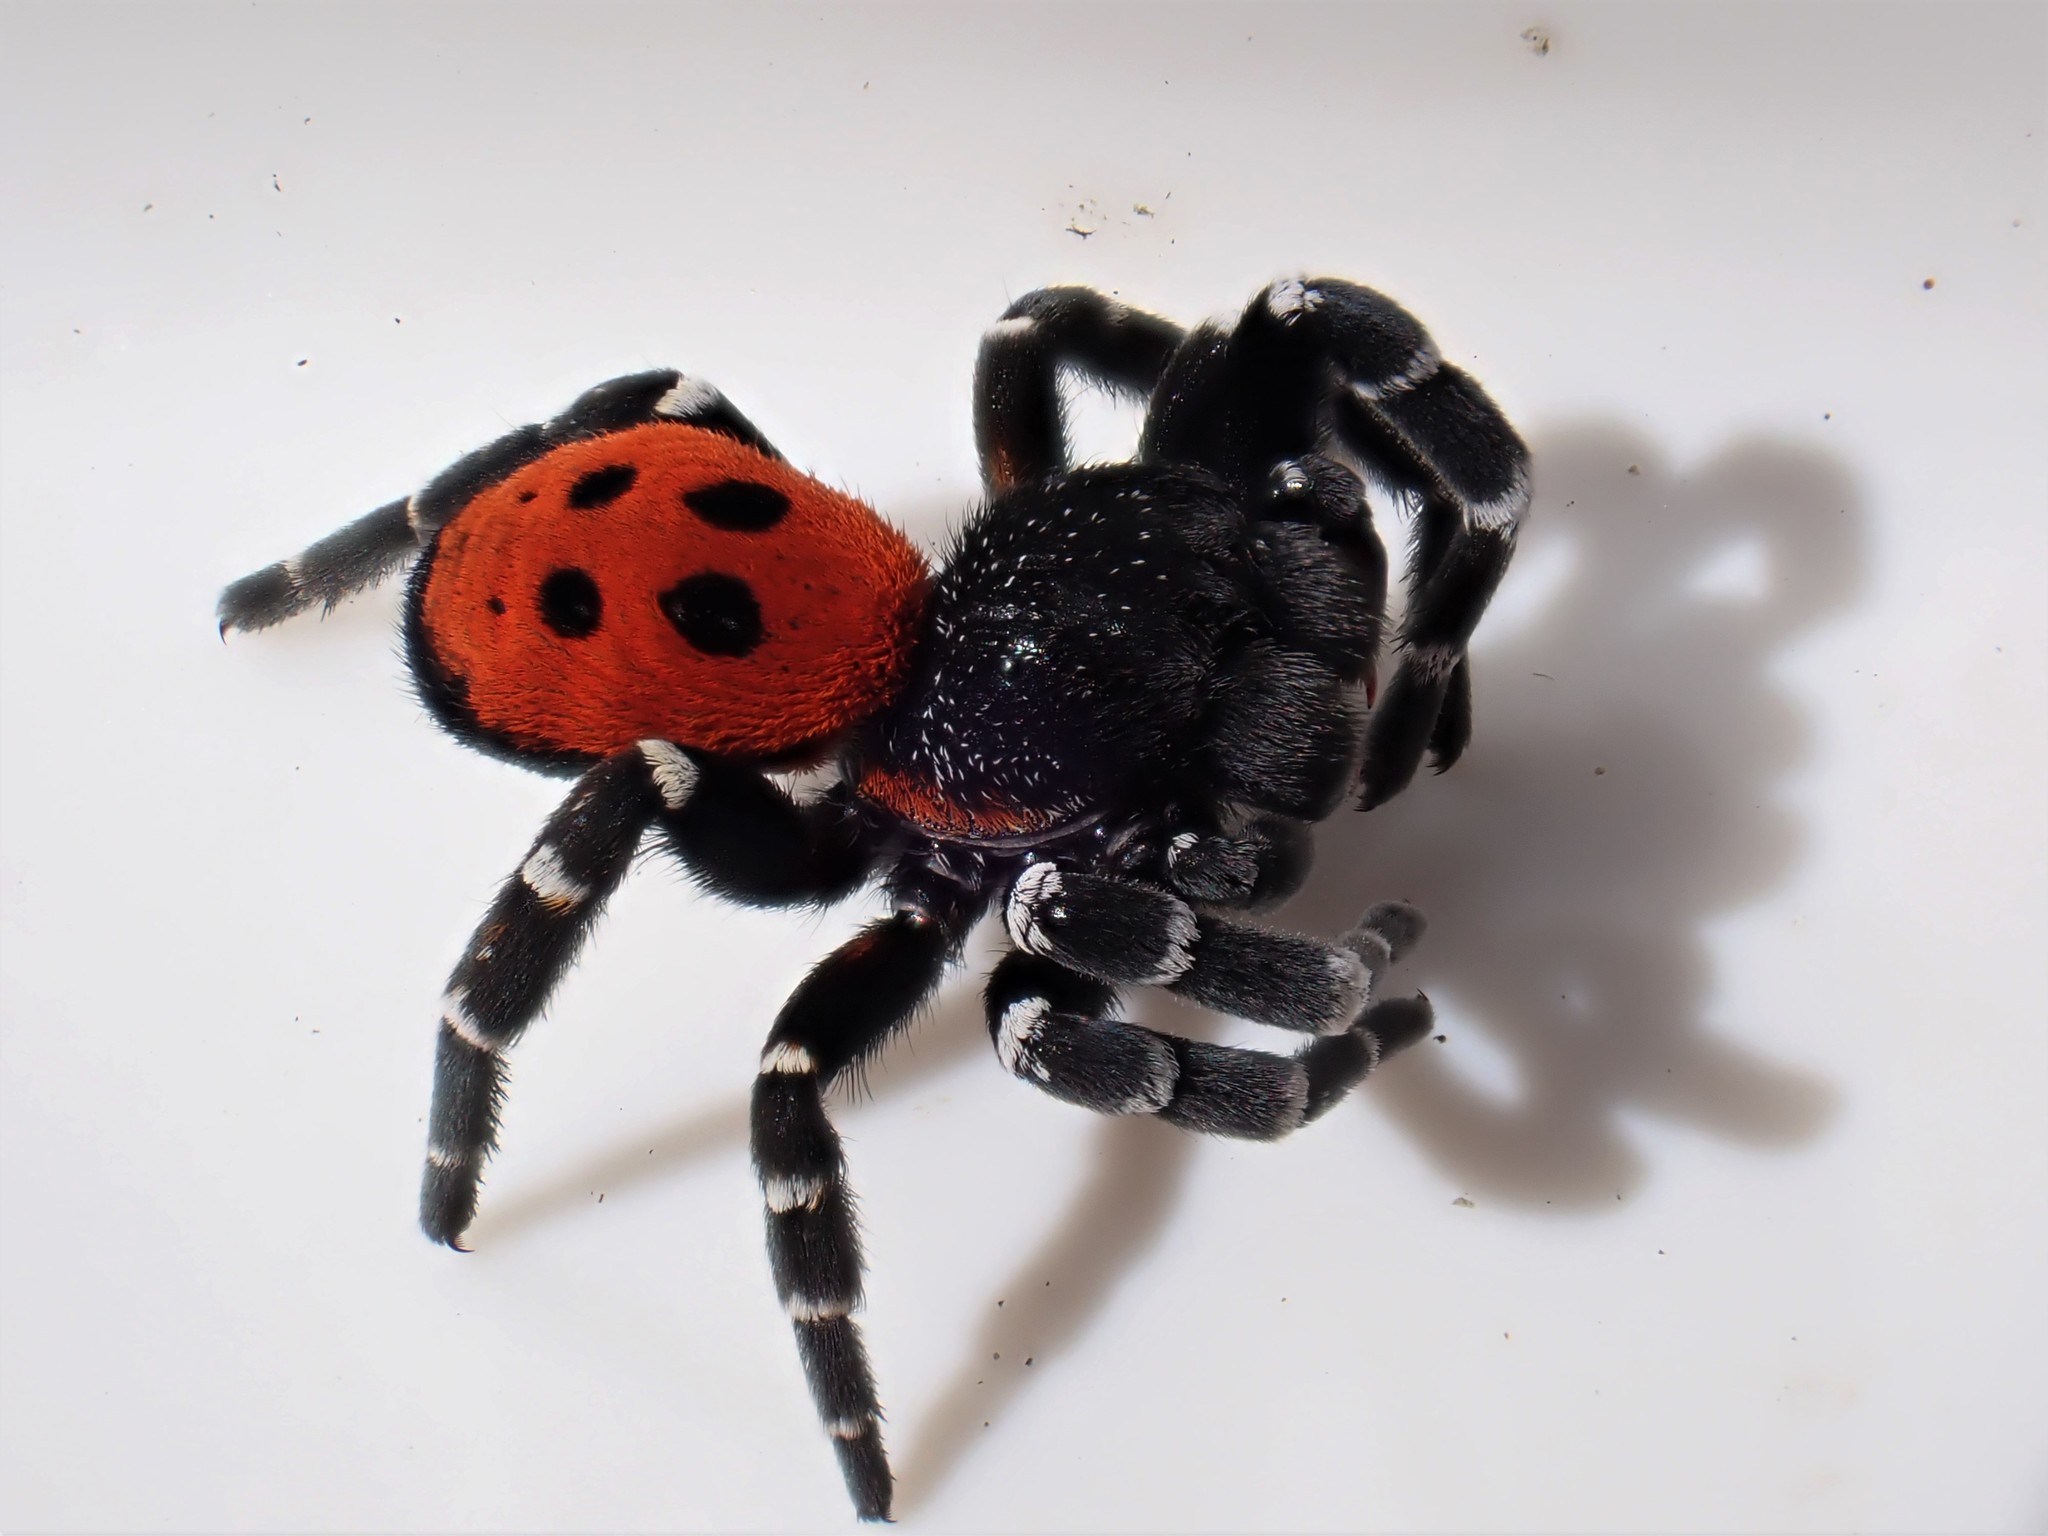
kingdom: Animalia
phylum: Arthropoda
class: Arachnida
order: Araneae
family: Eresidae
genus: Eresus
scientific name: Eresus sandaliatus
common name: Ladybird spider
